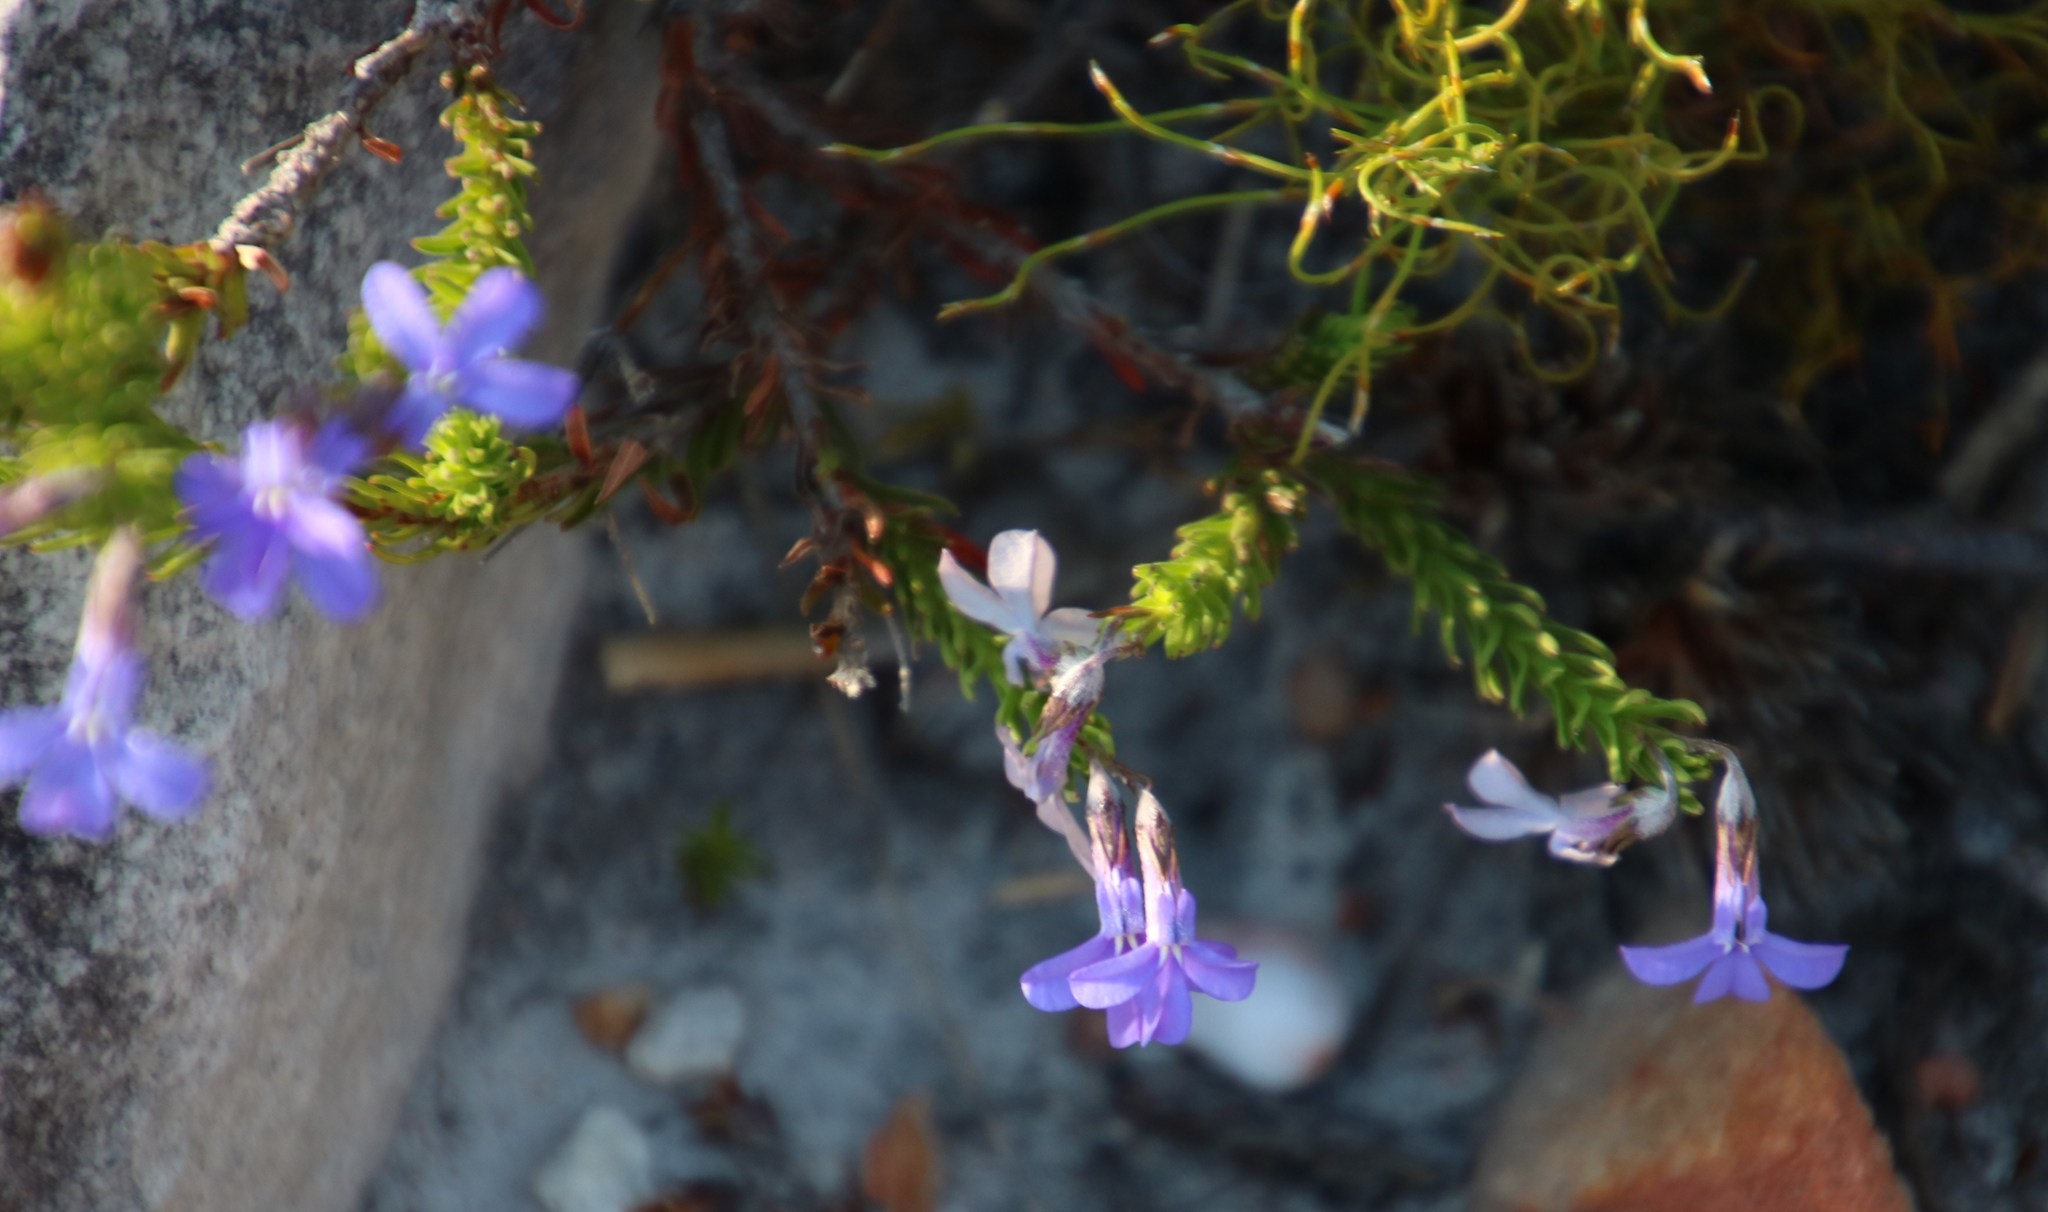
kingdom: Plantae
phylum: Tracheophyta
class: Magnoliopsida
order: Asterales
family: Campanulaceae
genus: Lobelia
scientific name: Lobelia pinifolia
